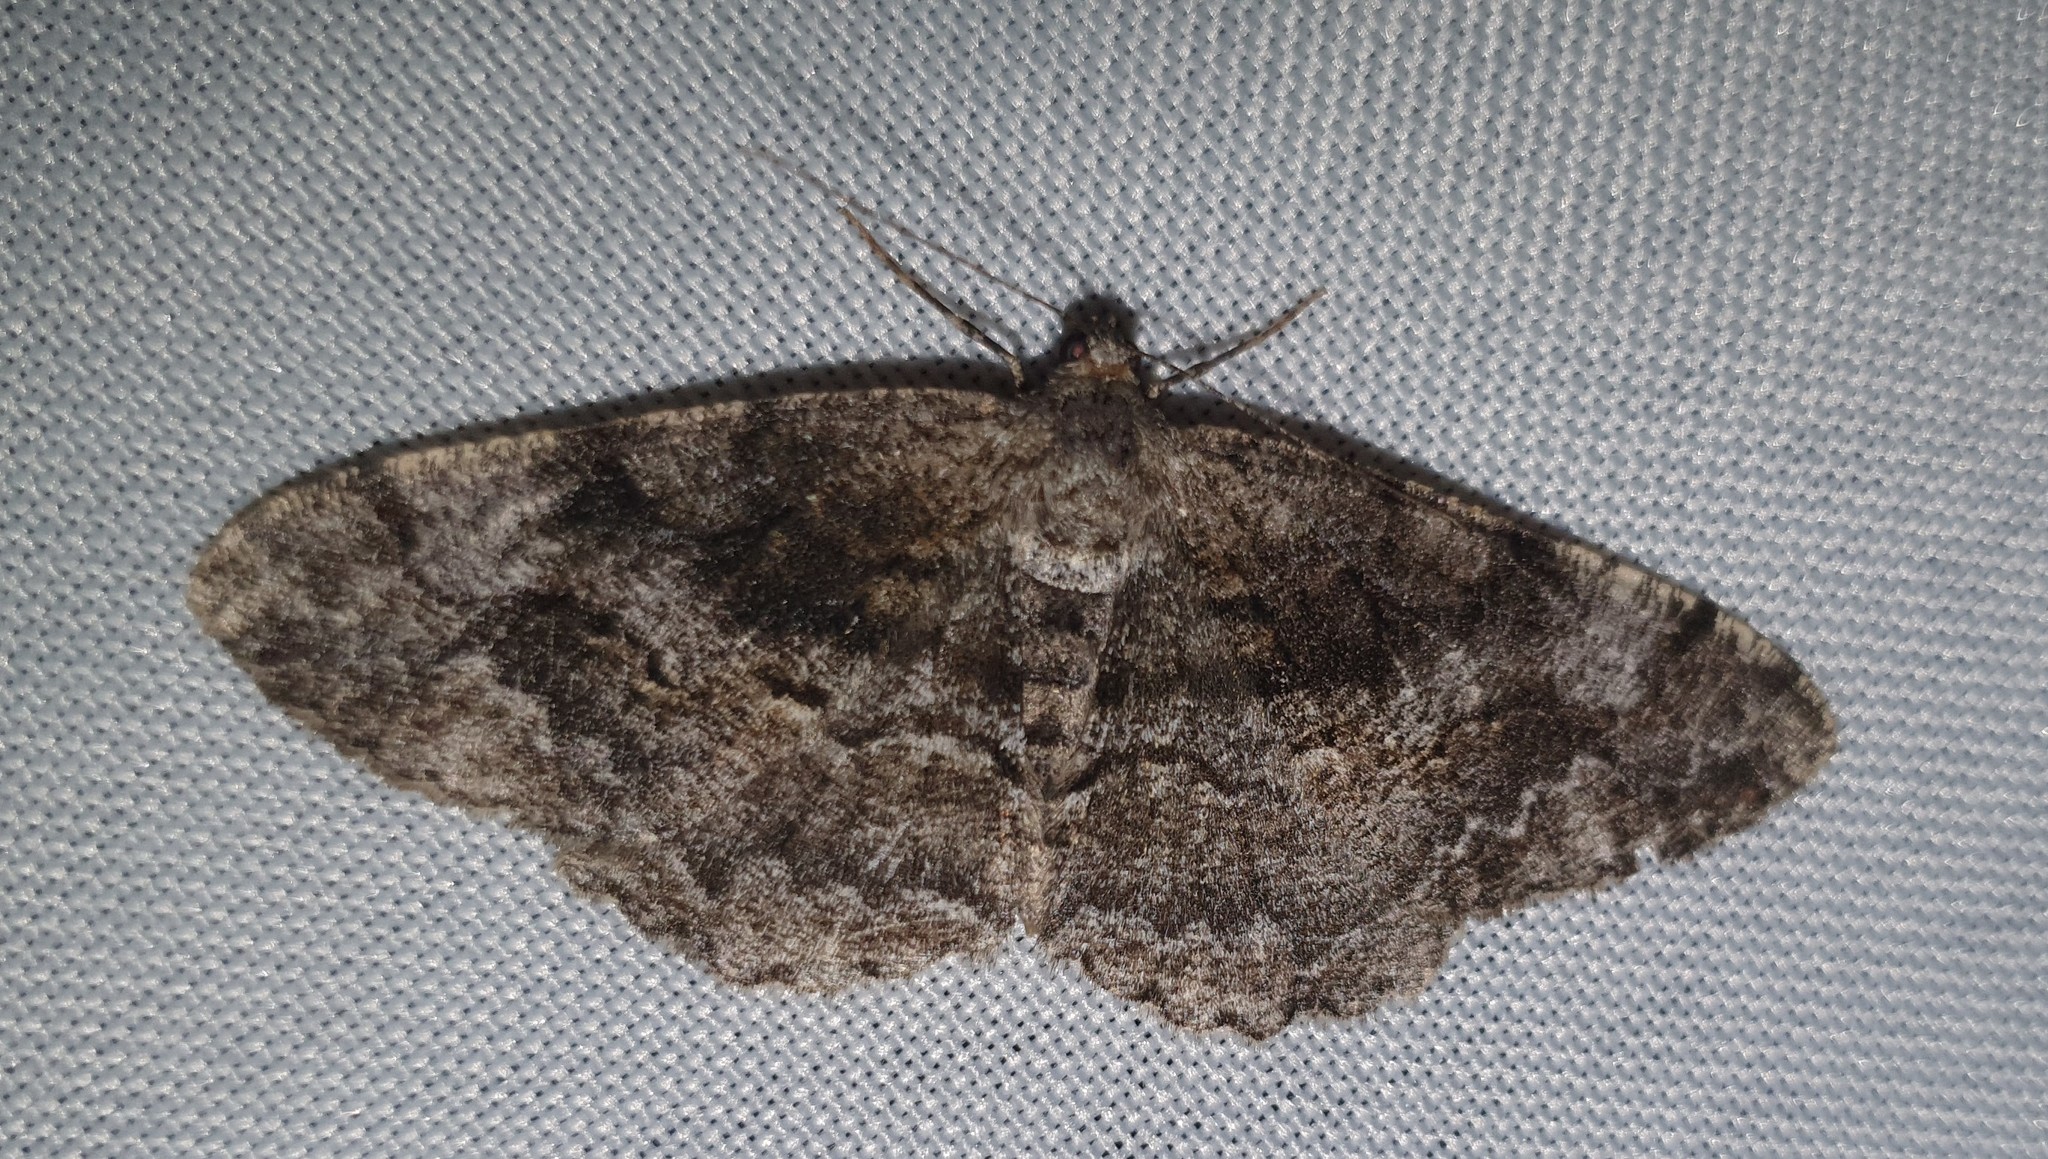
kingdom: Animalia
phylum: Arthropoda
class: Insecta
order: Lepidoptera
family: Geometridae
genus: Alcis
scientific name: Alcis repandata
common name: Mottled beauty
